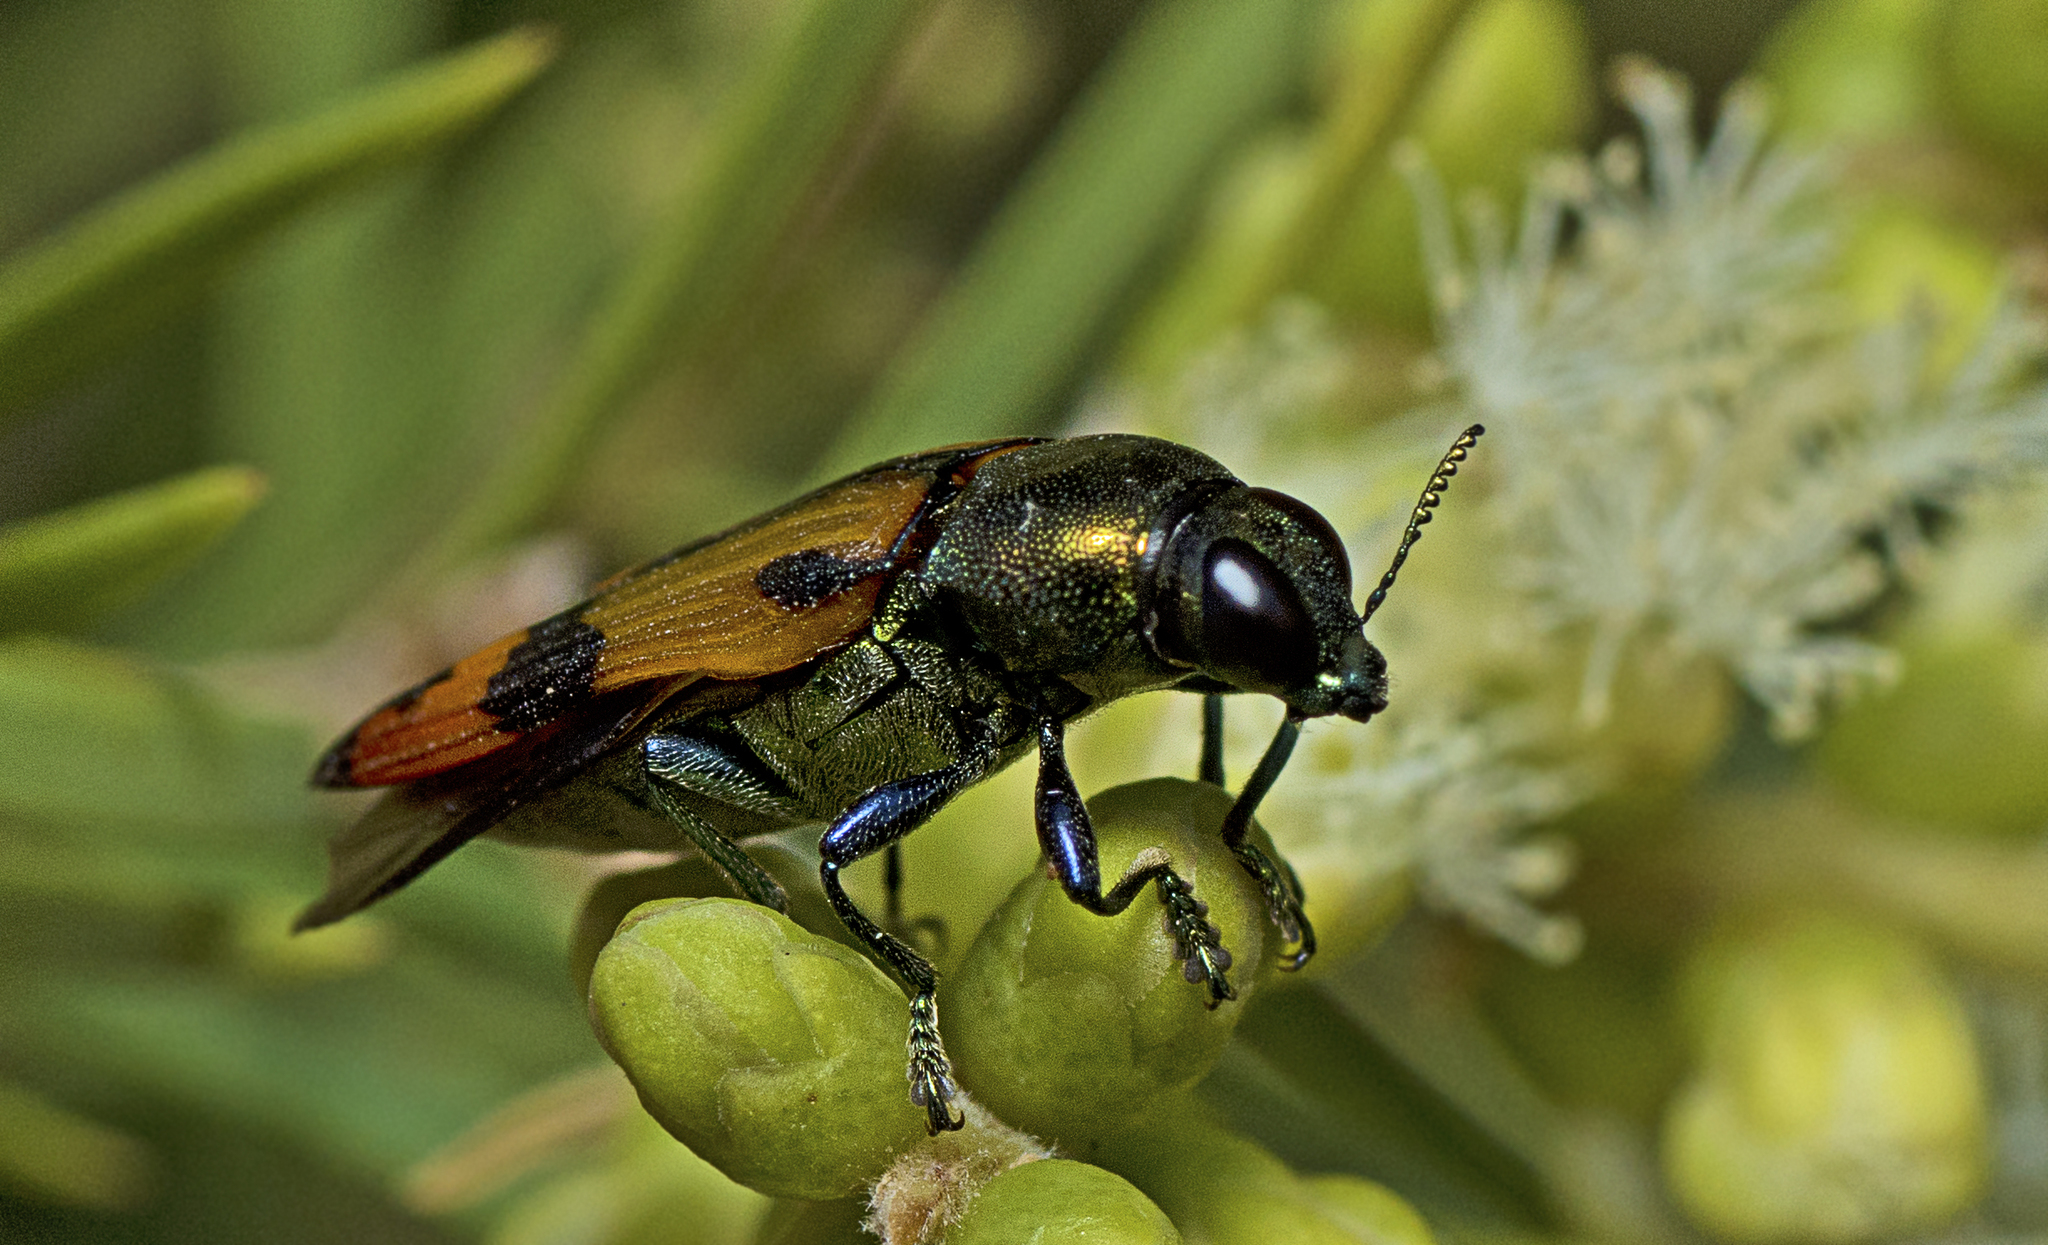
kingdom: Animalia
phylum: Arthropoda
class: Insecta
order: Coleoptera
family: Buprestidae
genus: Castiarina
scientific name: Castiarina alternecosta
